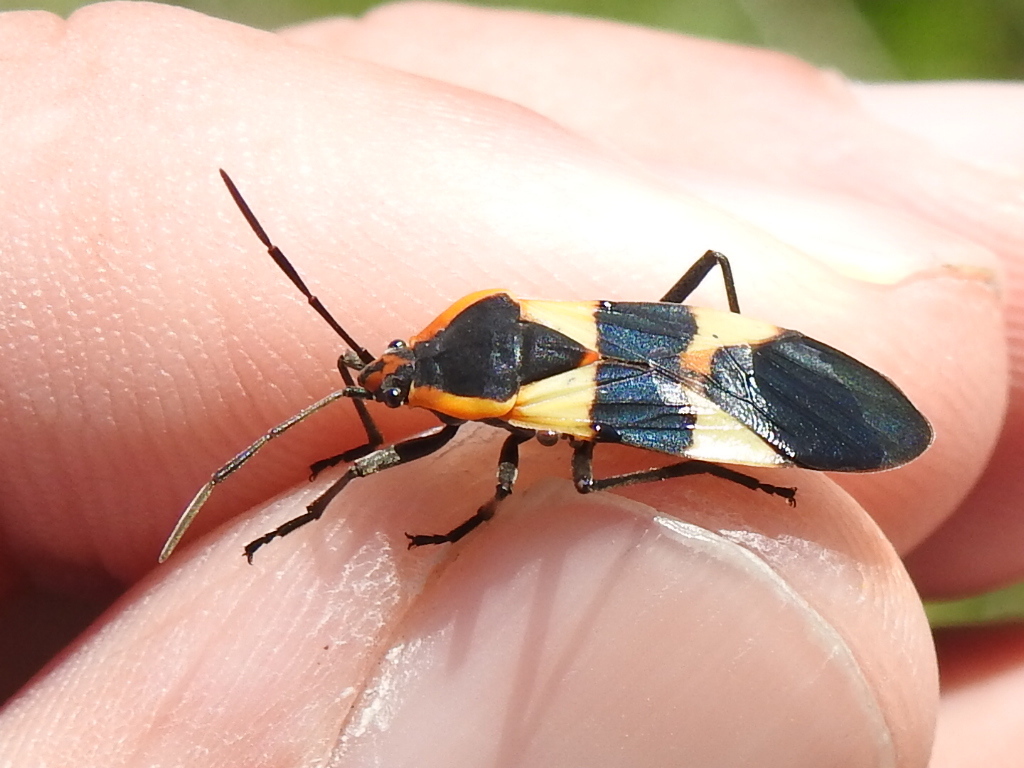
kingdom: Animalia
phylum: Arthropoda
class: Insecta
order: Hemiptera
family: Lygaeidae
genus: Oncopeltus
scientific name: Oncopeltus fasciatus
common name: Large milkweed bug
